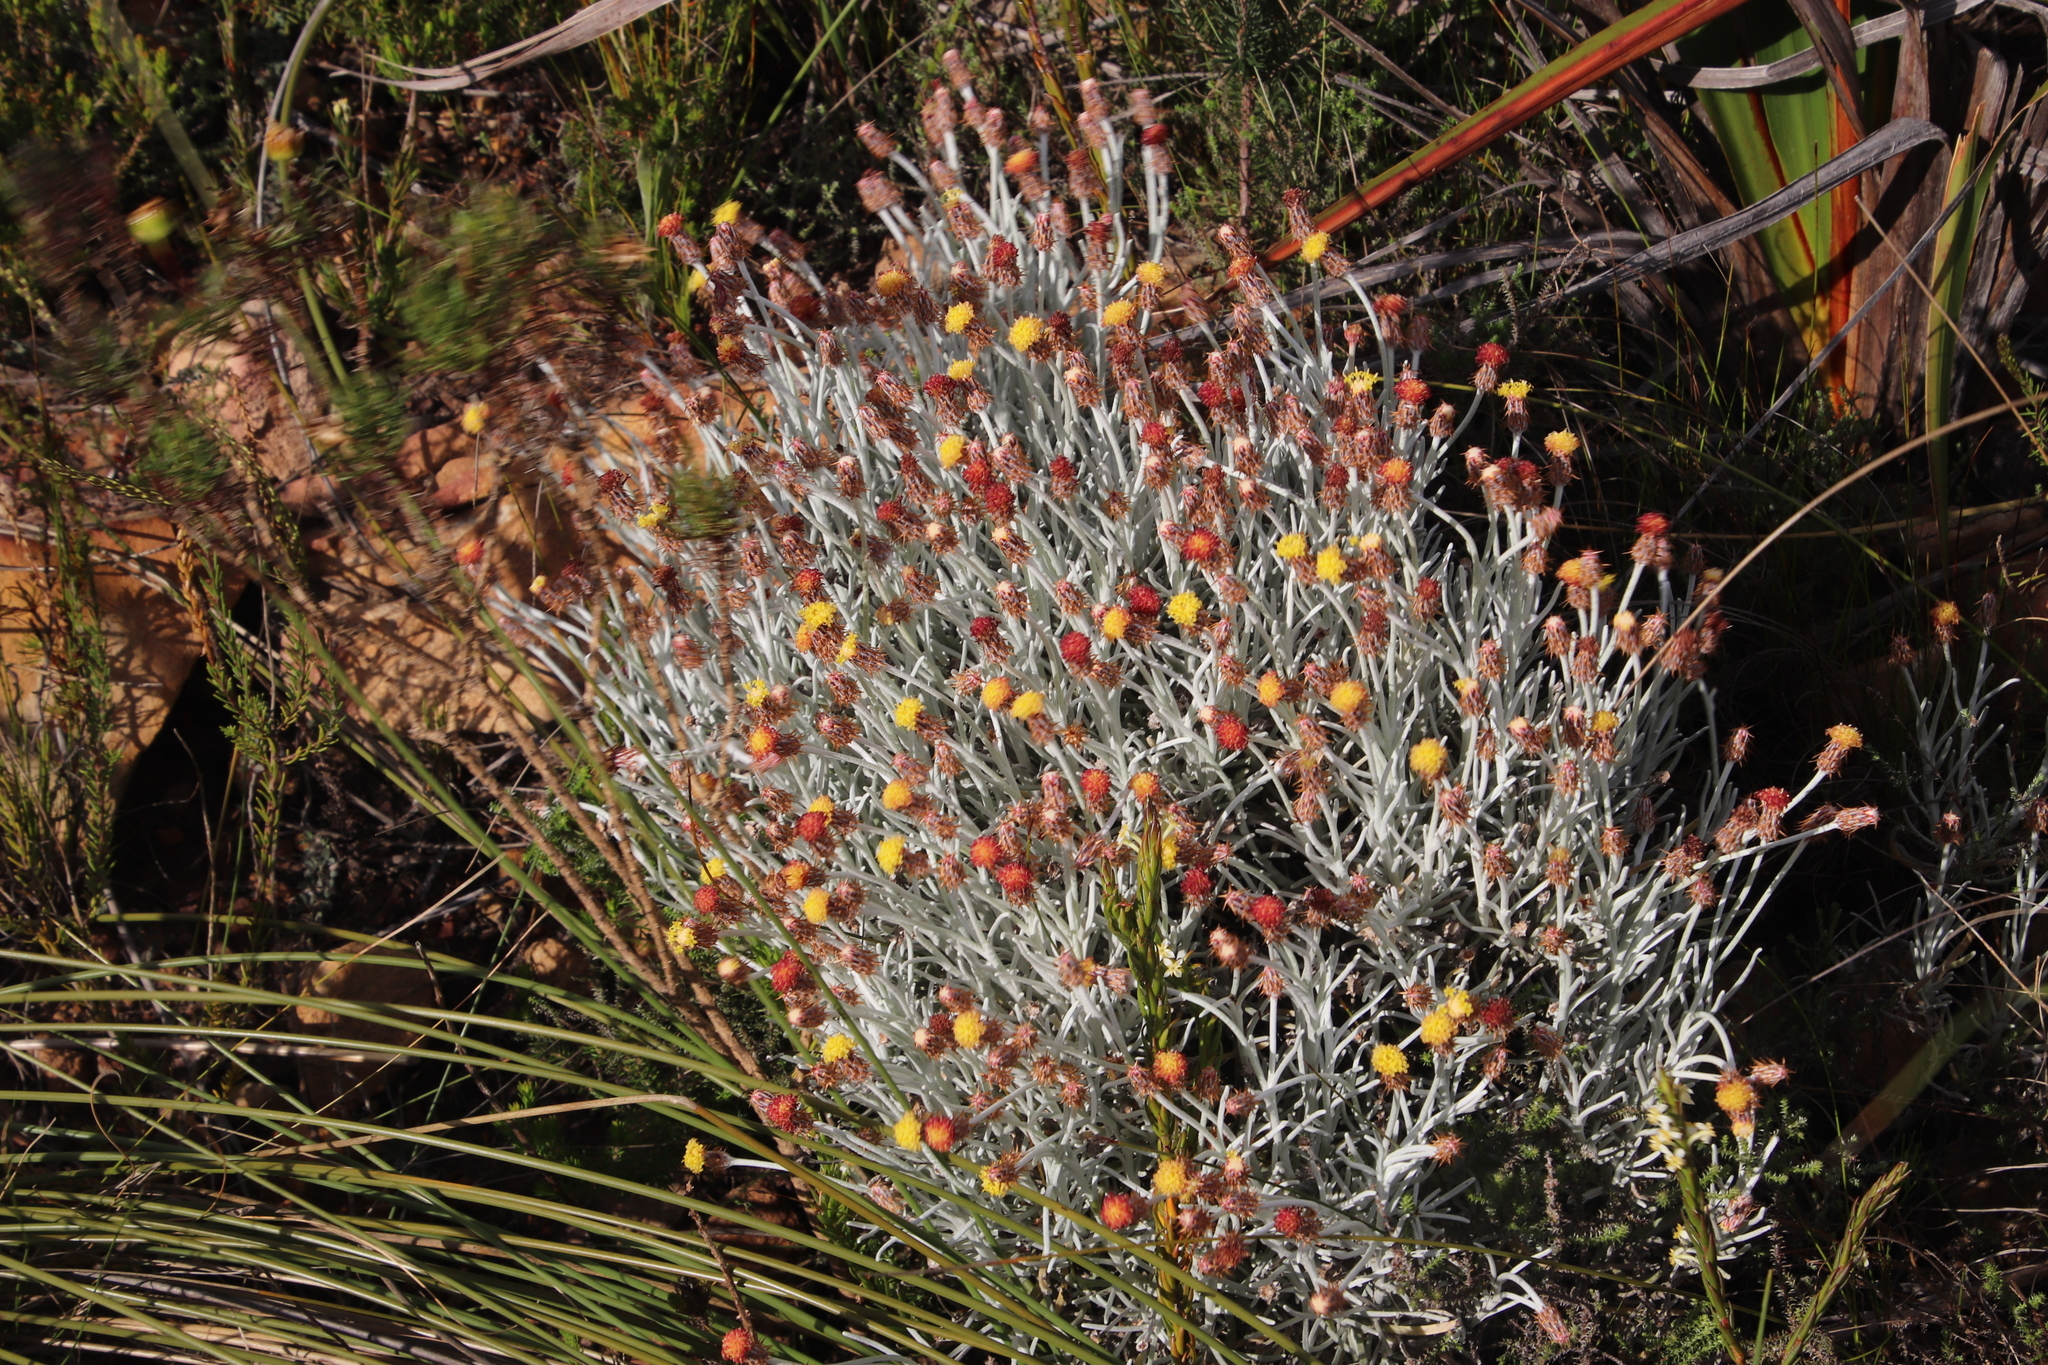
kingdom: Plantae
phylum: Tracheophyta
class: Magnoliopsida
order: Asterales
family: Asteraceae
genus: Syncarpha
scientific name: Syncarpha gnaphaloides
